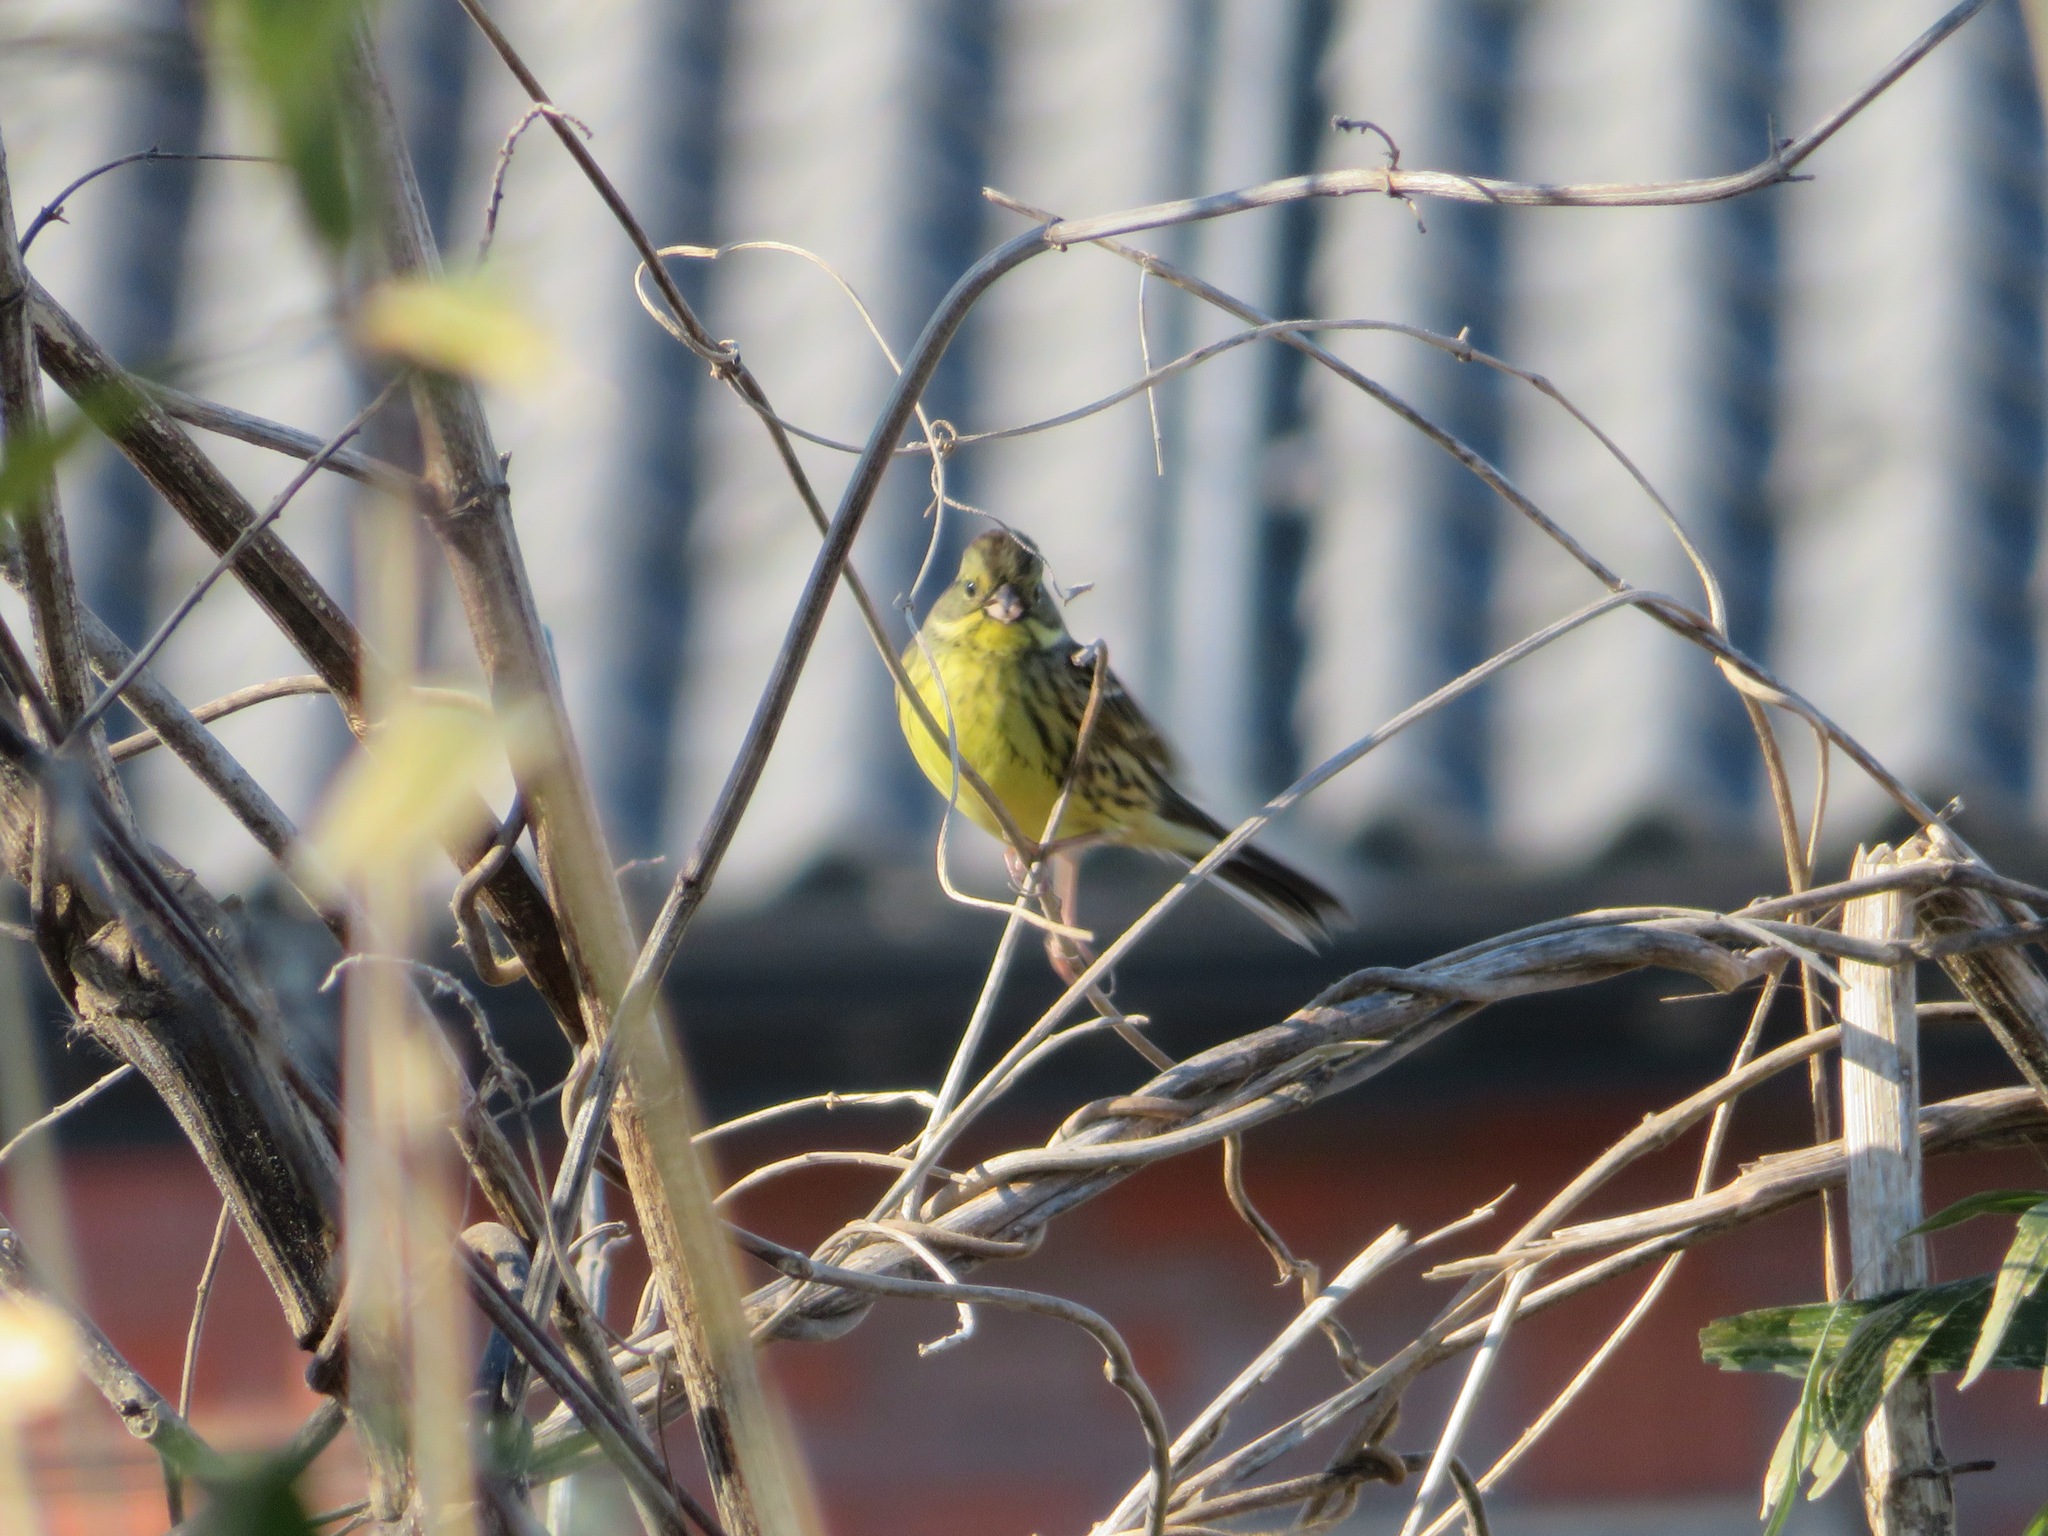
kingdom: Animalia
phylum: Chordata
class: Aves
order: Passeriformes
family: Emberizidae
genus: Emberiza
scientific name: Emberiza personata
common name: Masked bunting
